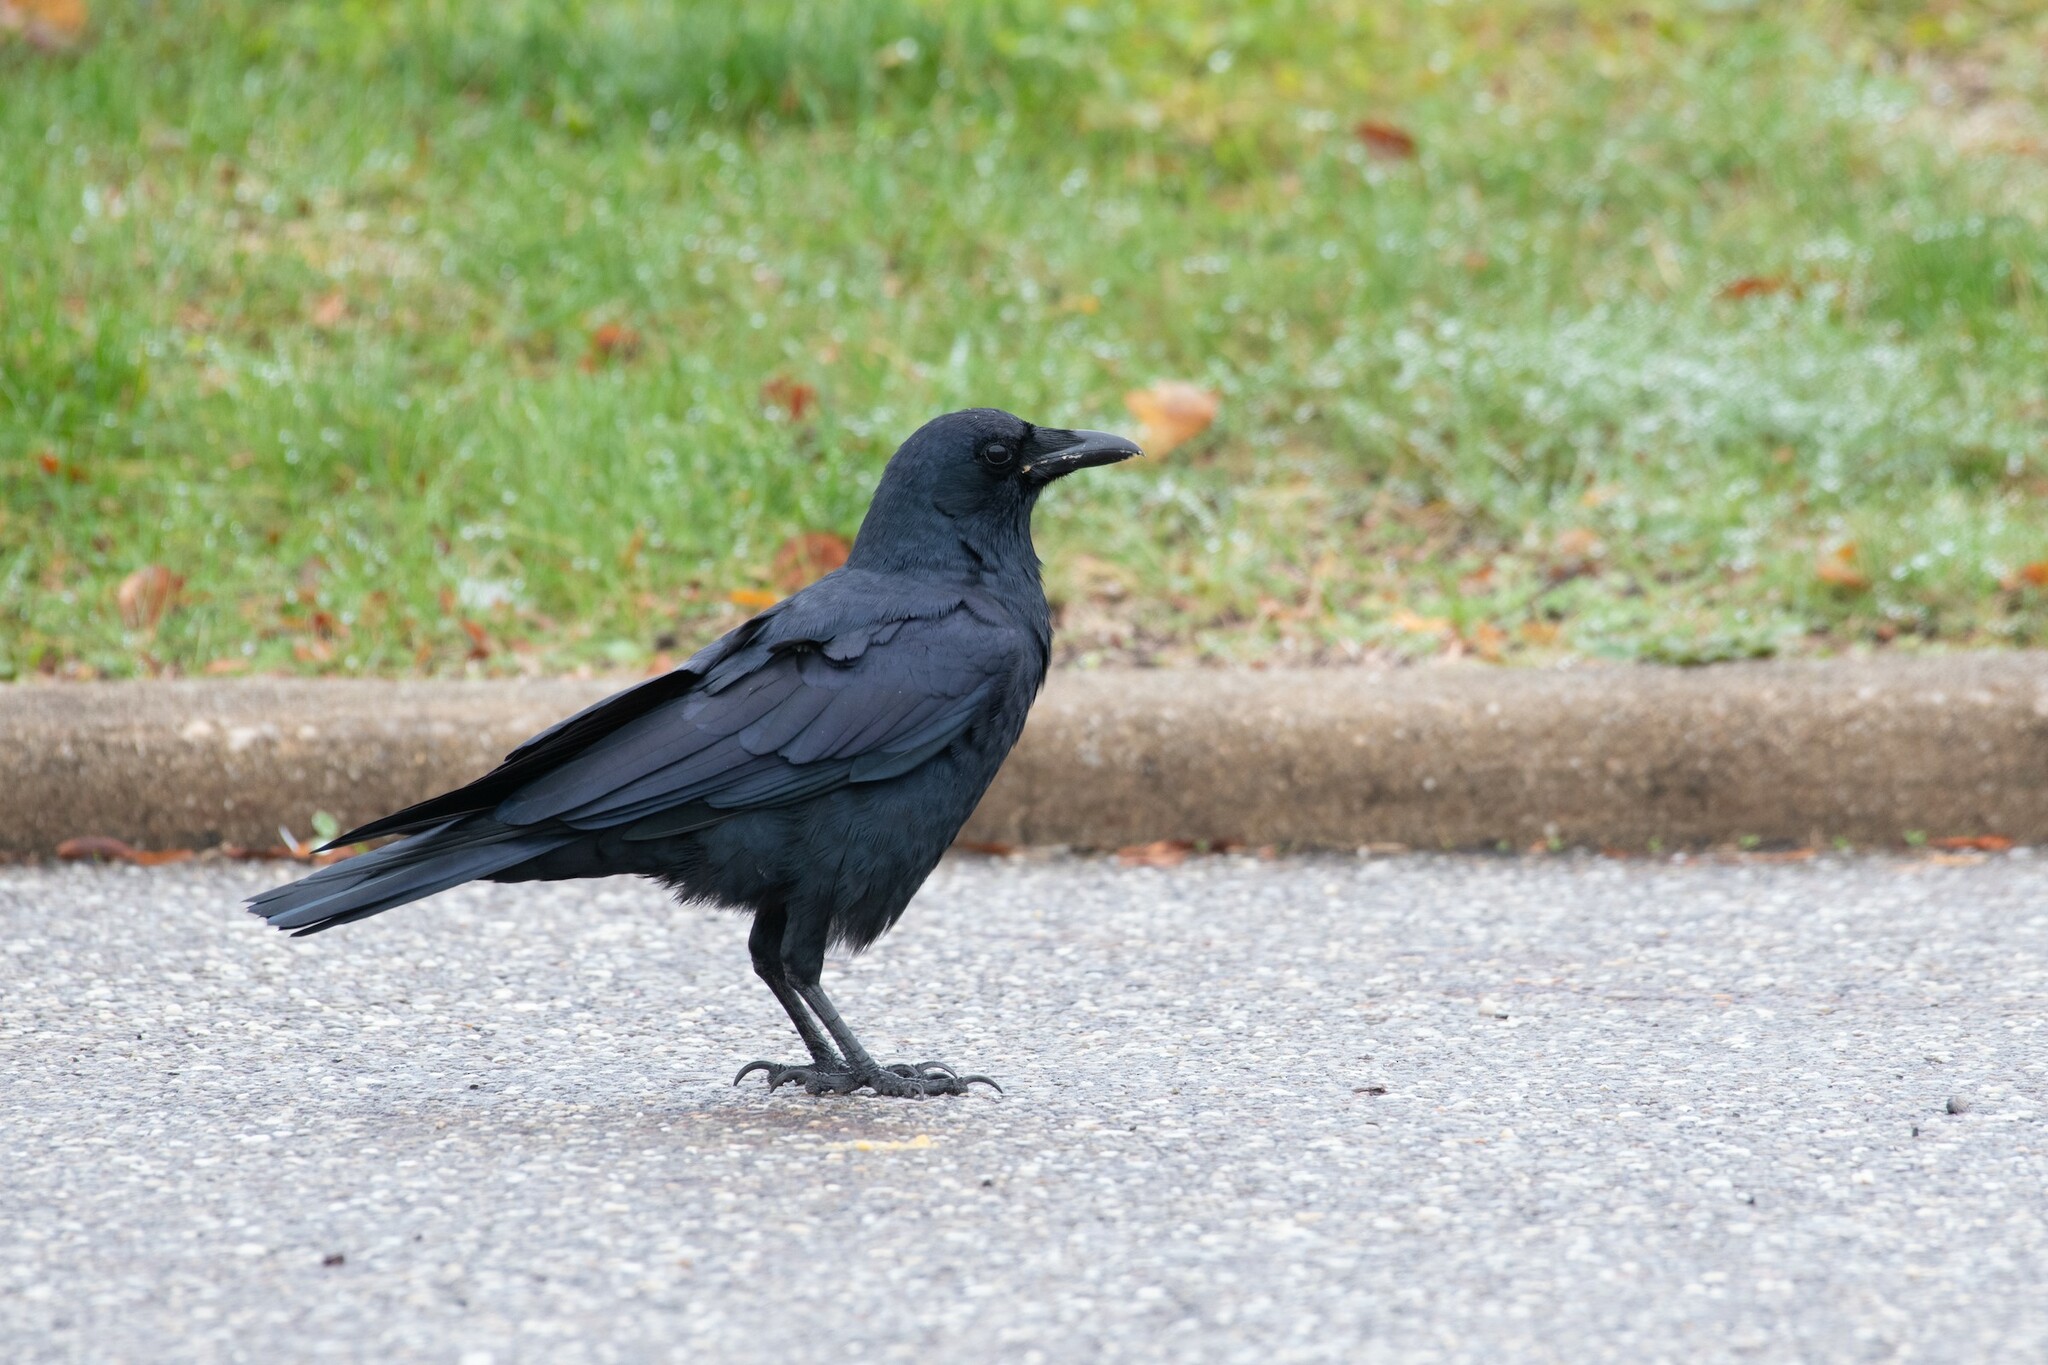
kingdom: Animalia
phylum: Chordata
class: Aves
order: Passeriformes
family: Corvidae
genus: Corvus
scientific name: Corvus ossifragus
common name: Fish crow
